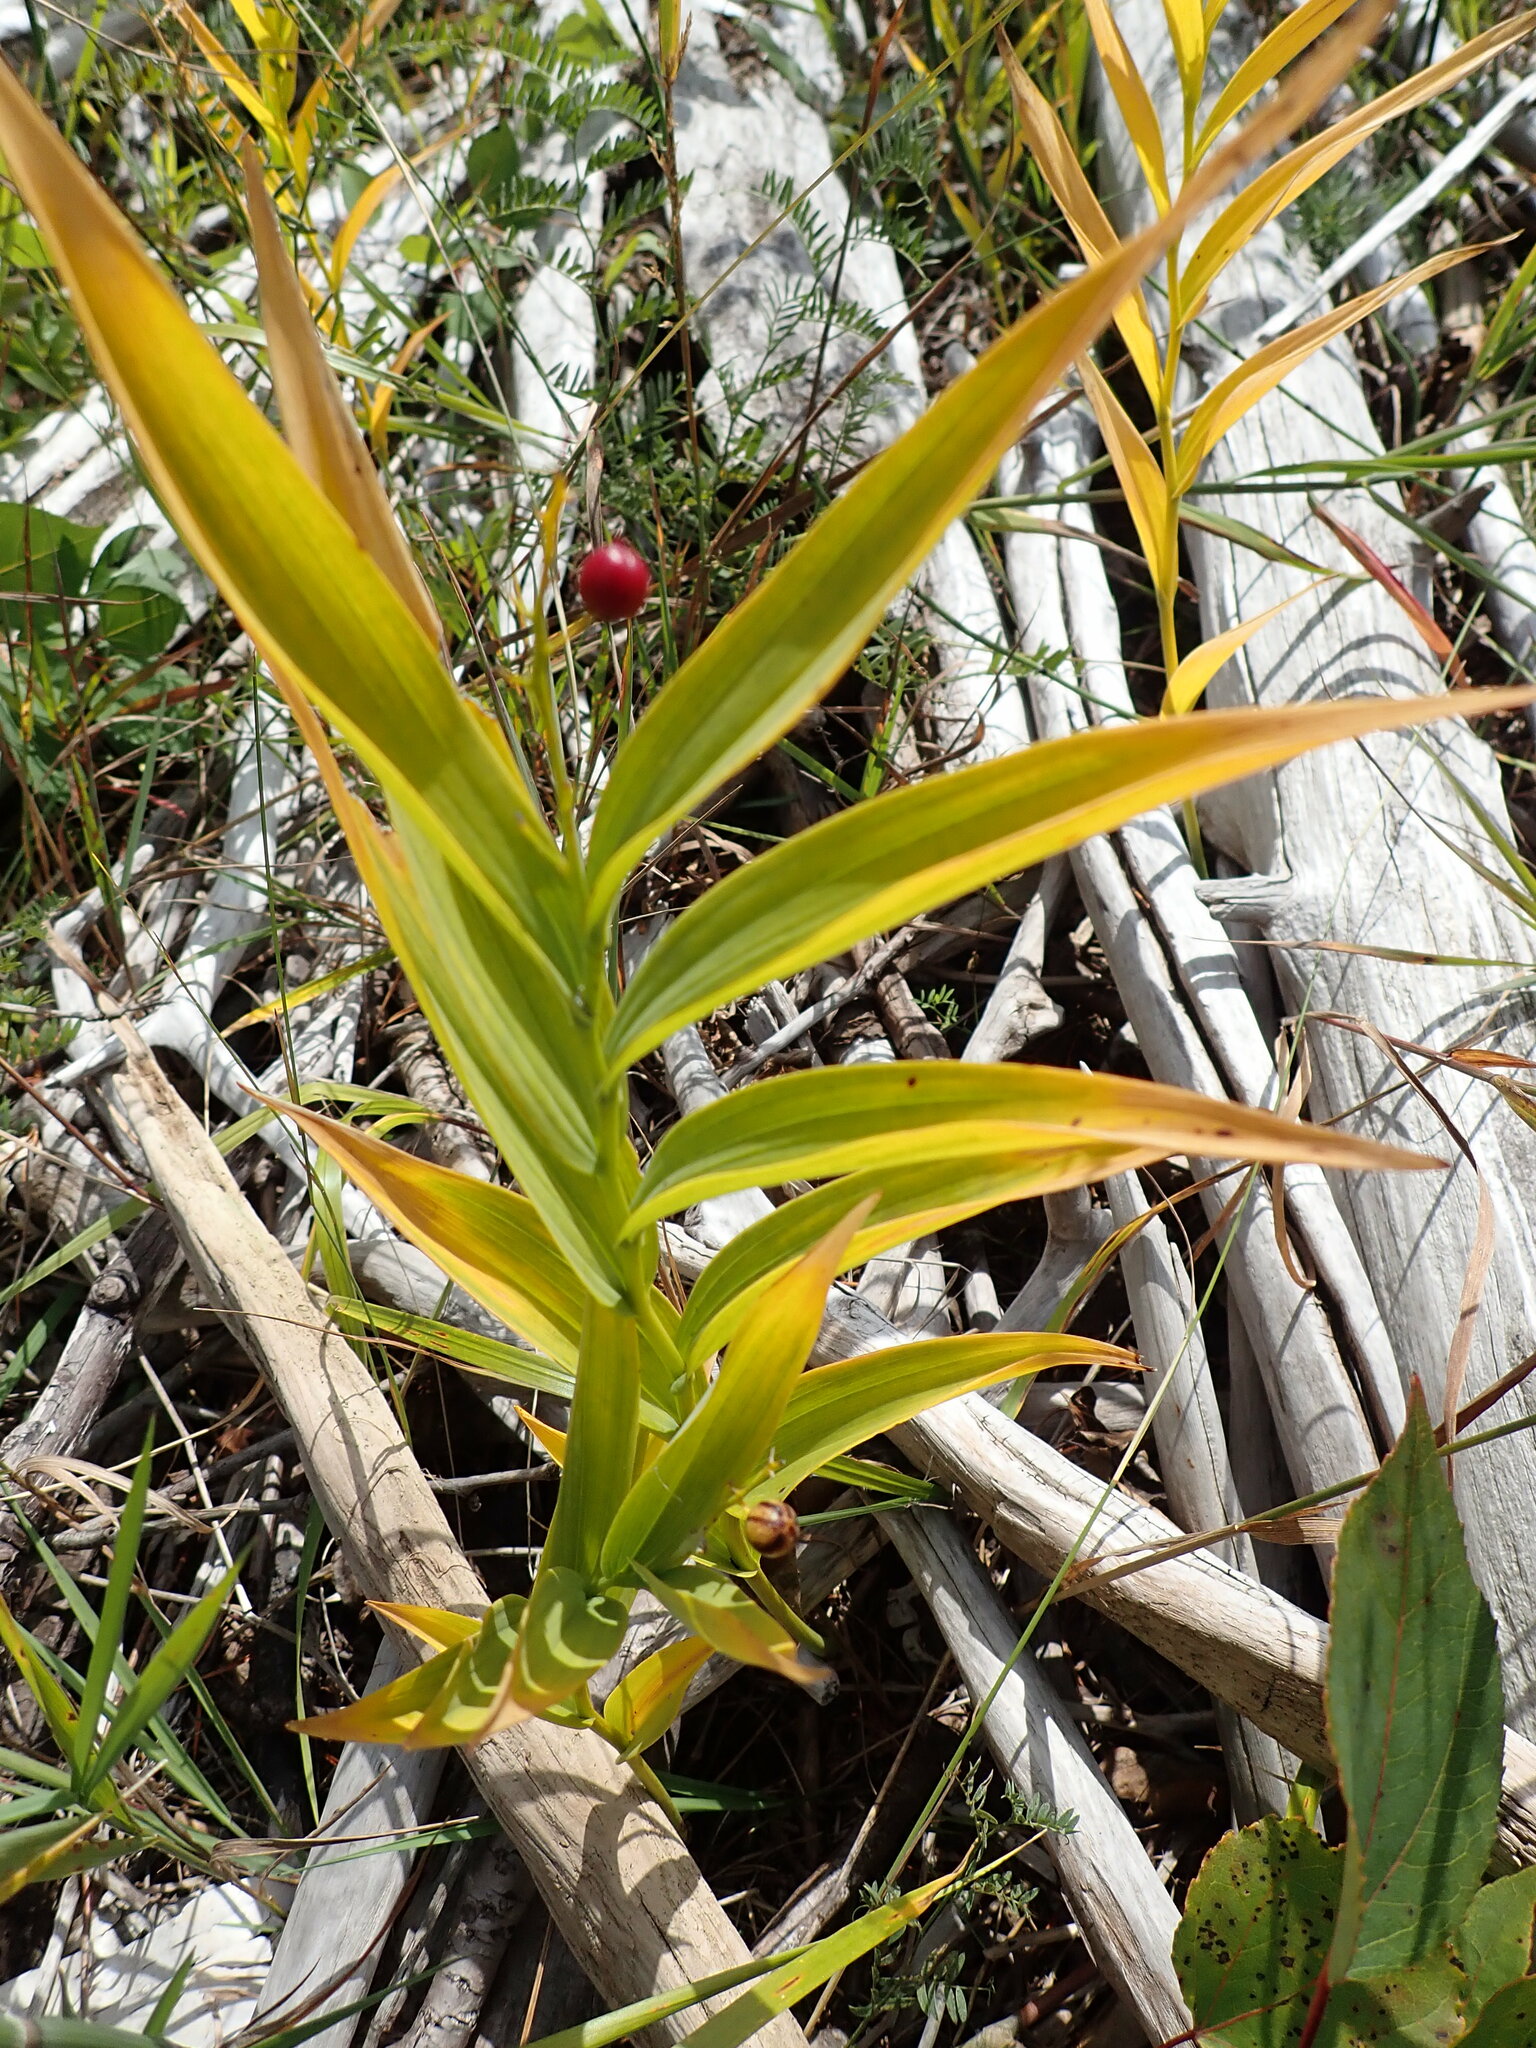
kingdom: Plantae
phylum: Tracheophyta
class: Liliopsida
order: Asparagales
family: Asparagaceae
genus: Maianthemum
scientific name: Maianthemum stellatum
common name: Little false solomon's seal
